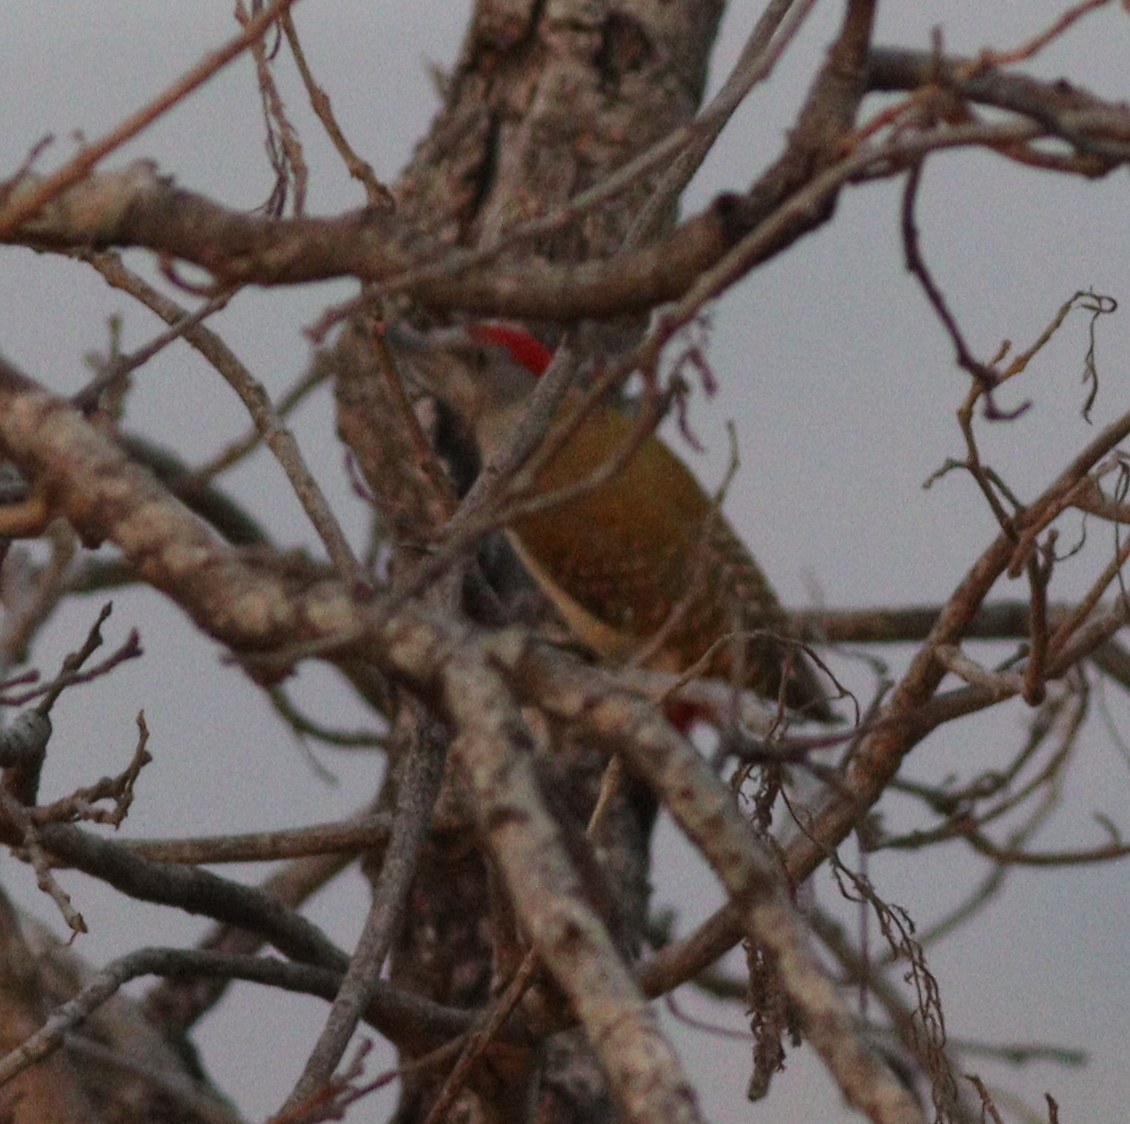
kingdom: Animalia
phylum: Chordata
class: Aves
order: Piciformes
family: Picidae
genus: Dendropicos
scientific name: Dendropicos goertae
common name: African grey woodpecker
